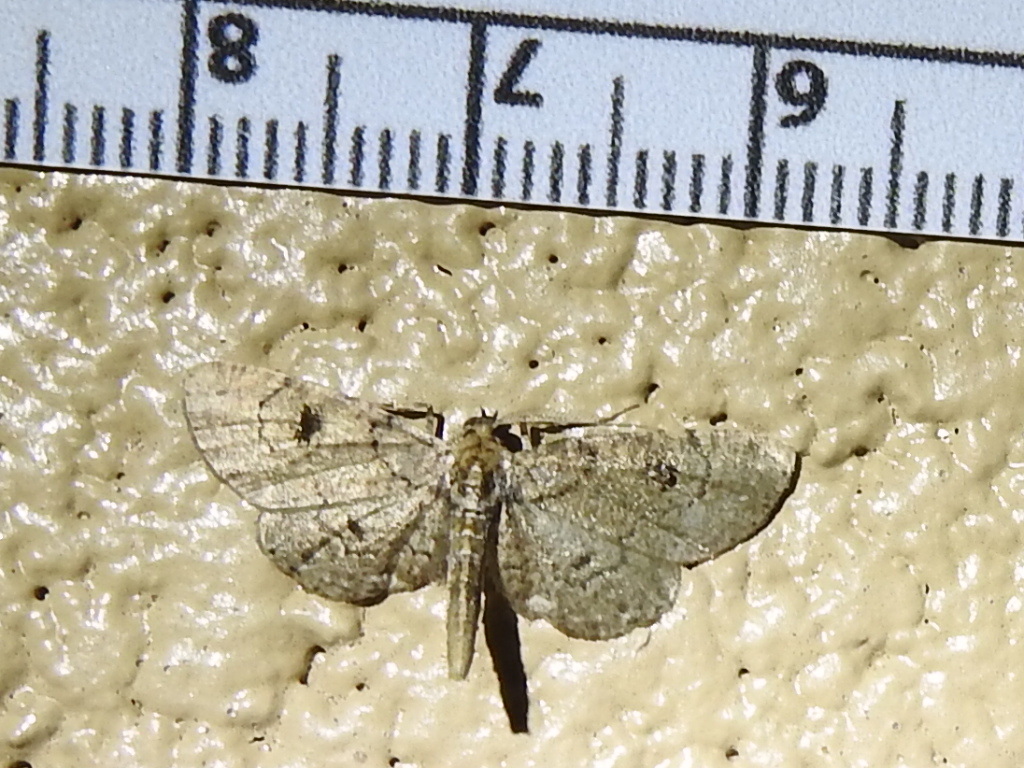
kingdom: Animalia
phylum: Arthropoda
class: Insecta
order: Lepidoptera
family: Geometridae
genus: Tornos
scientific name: Tornos punctata
